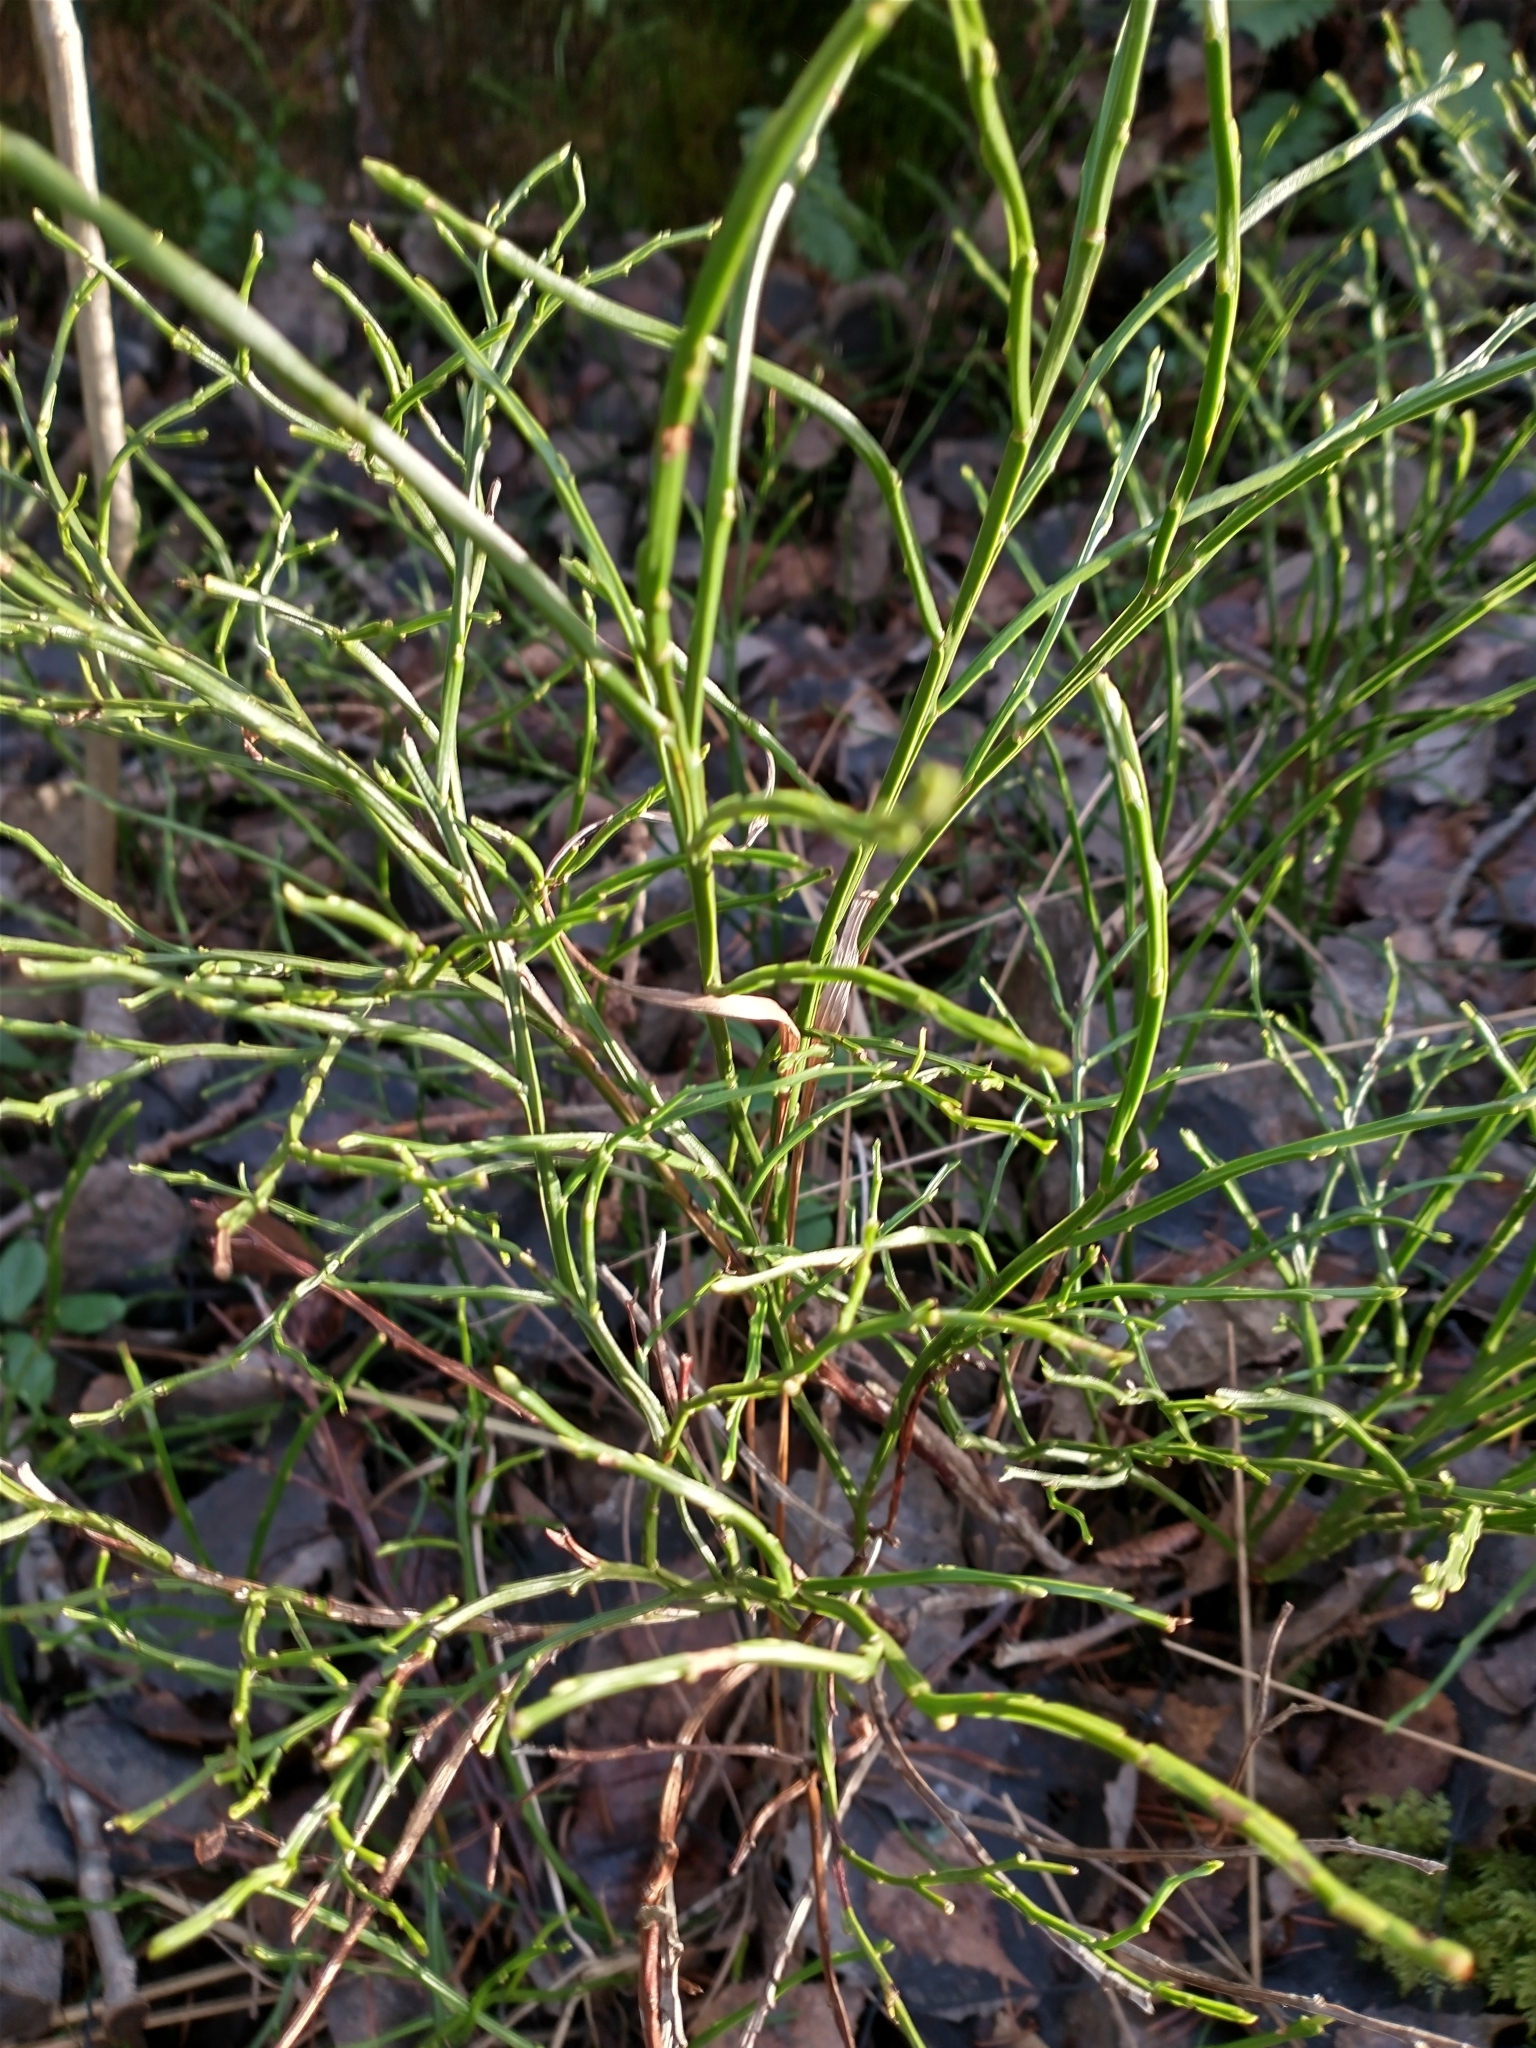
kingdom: Plantae
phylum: Tracheophyta
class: Magnoliopsida
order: Ericales
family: Ericaceae
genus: Vaccinium
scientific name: Vaccinium myrtillus
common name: Bilberry
